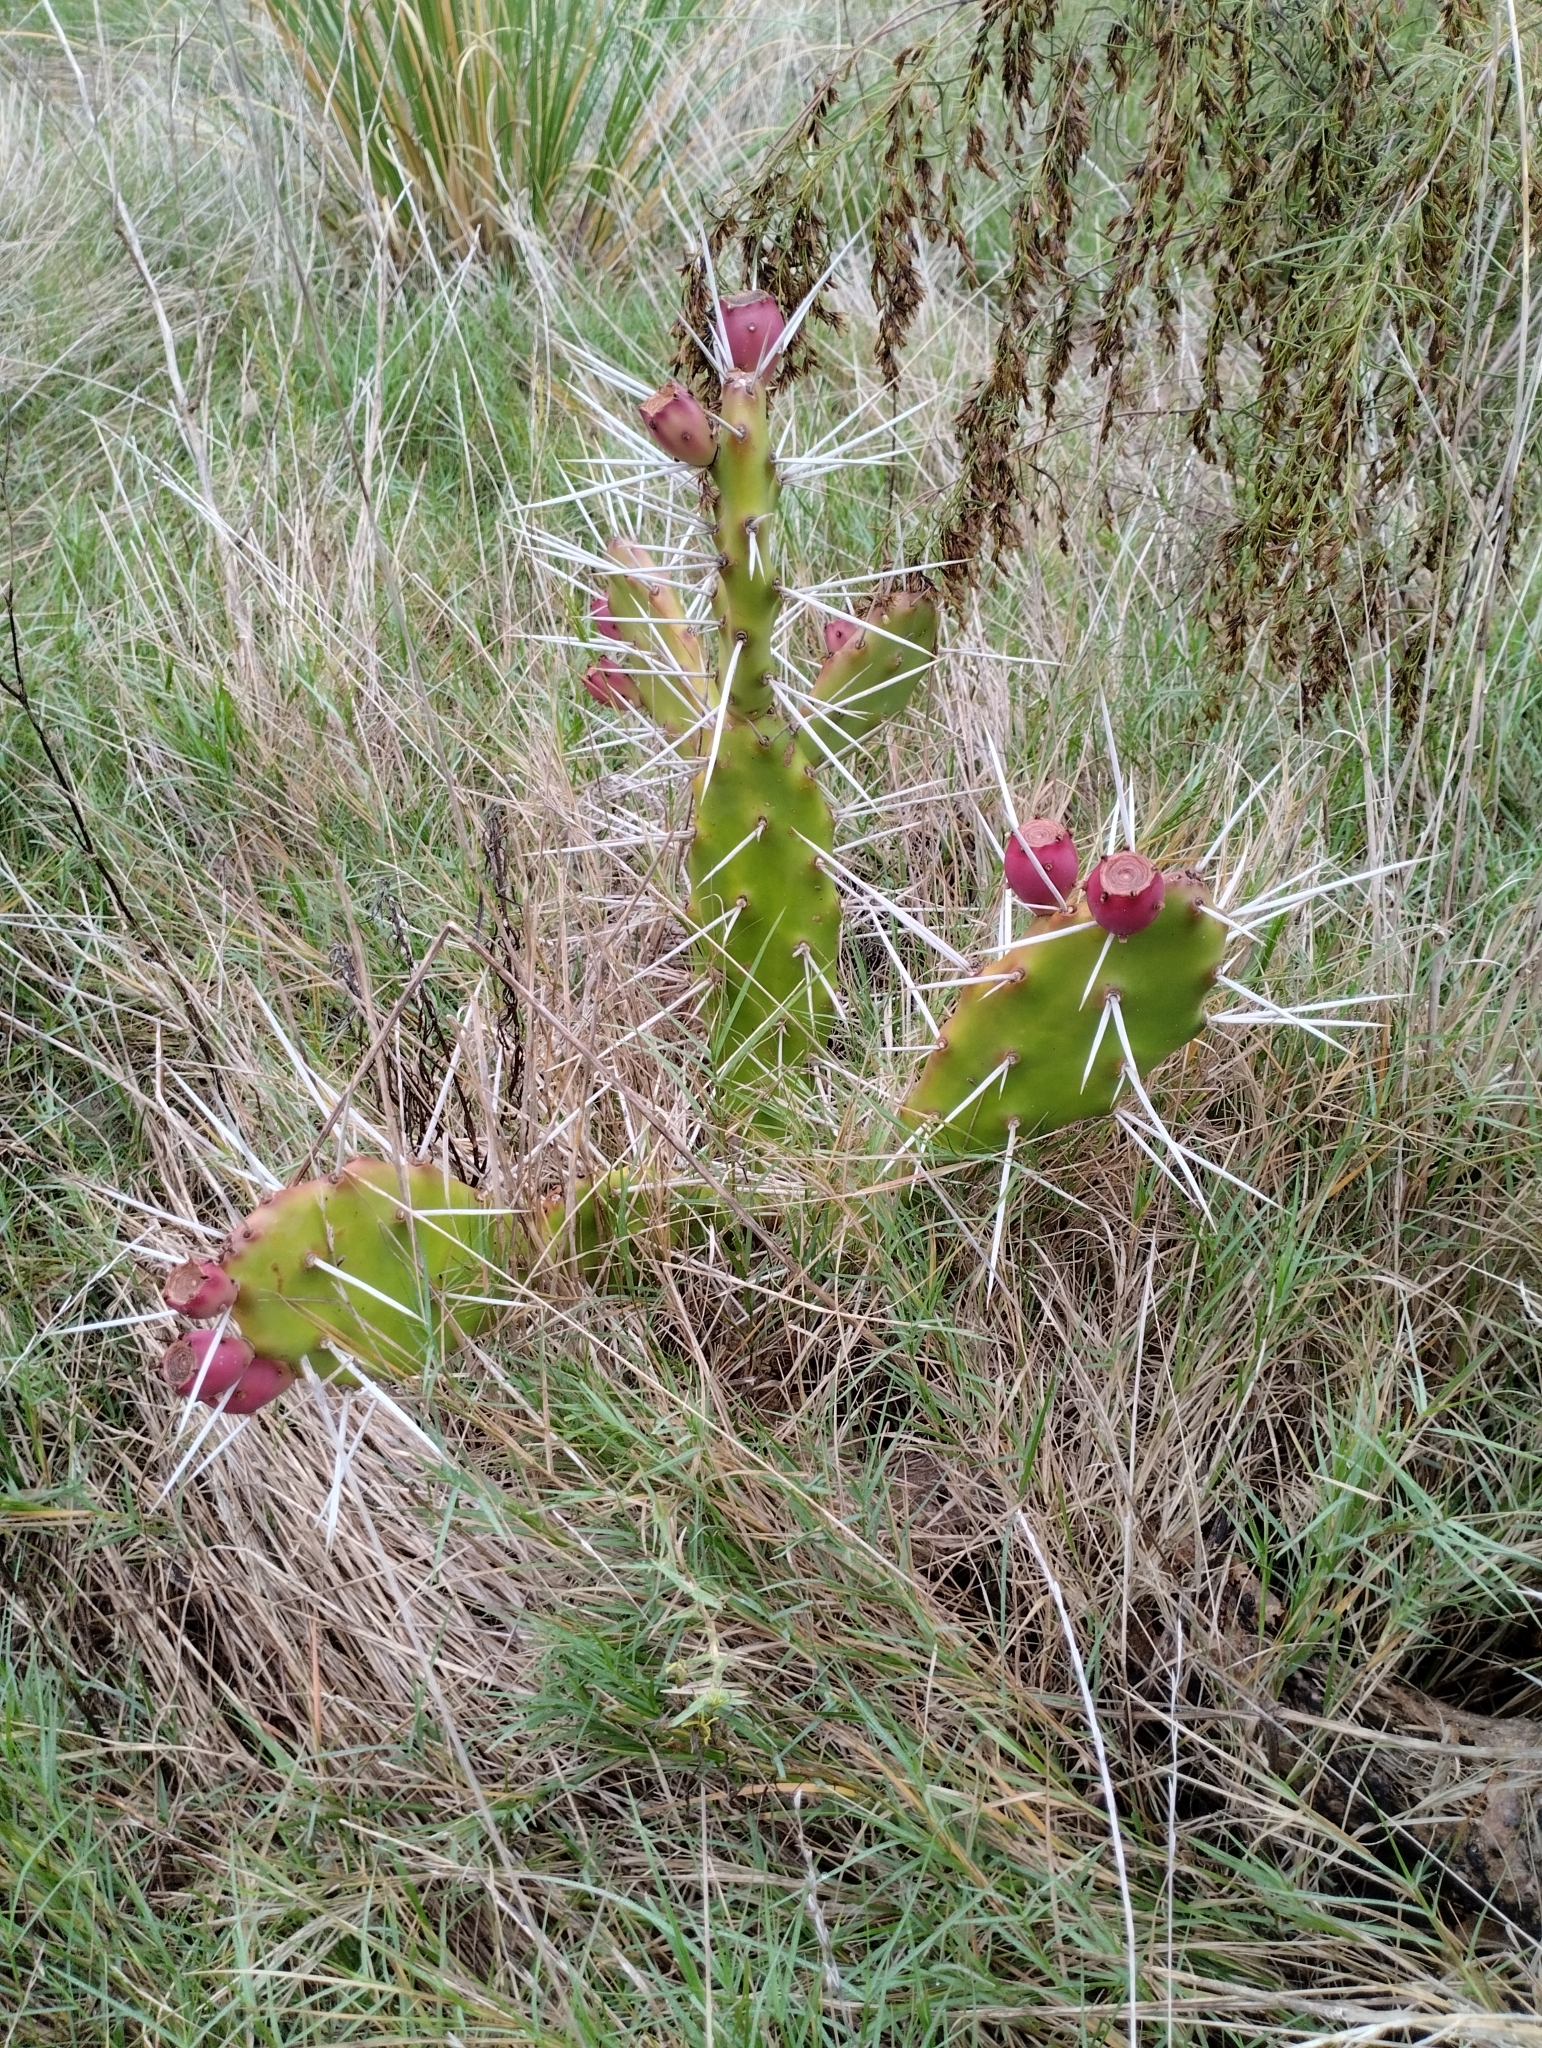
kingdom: Plantae
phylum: Tracheophyta
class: Magnoliopsida
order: Caryophyllales
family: Cactaceae
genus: Opuntia
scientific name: Opuntia elata
